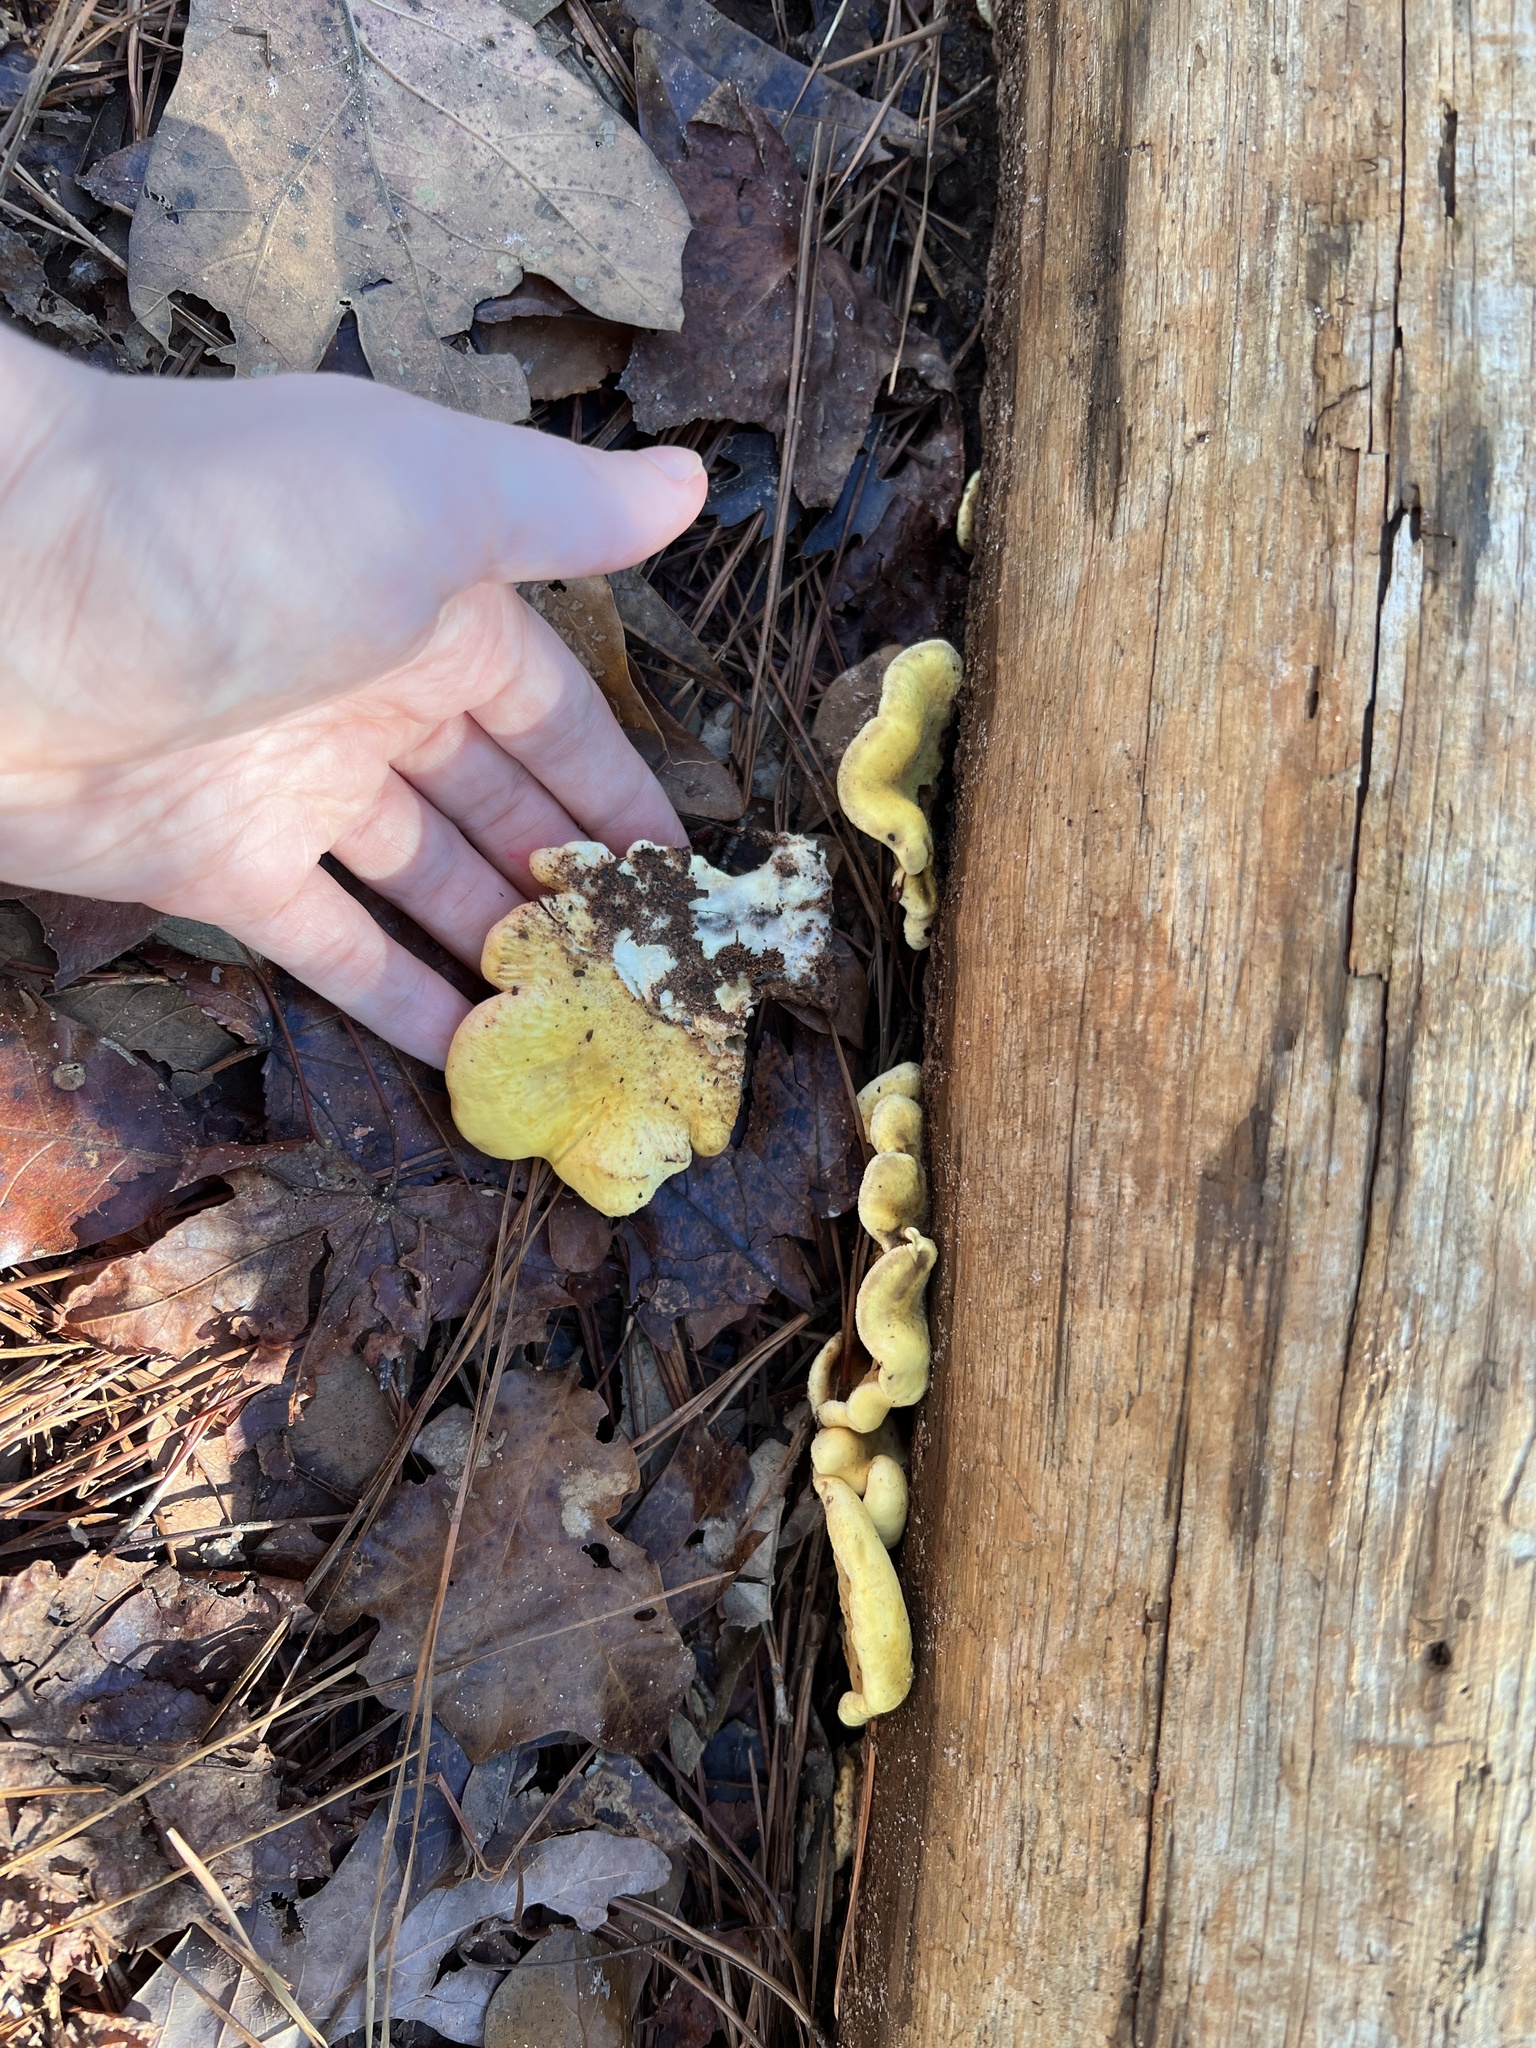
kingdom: Fungi
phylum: Basidiomycota
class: Agaricomycetes
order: Boletales
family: Tapinellaceae
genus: Tapinella
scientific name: Tapinella panuoides
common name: Oyster rollrim
